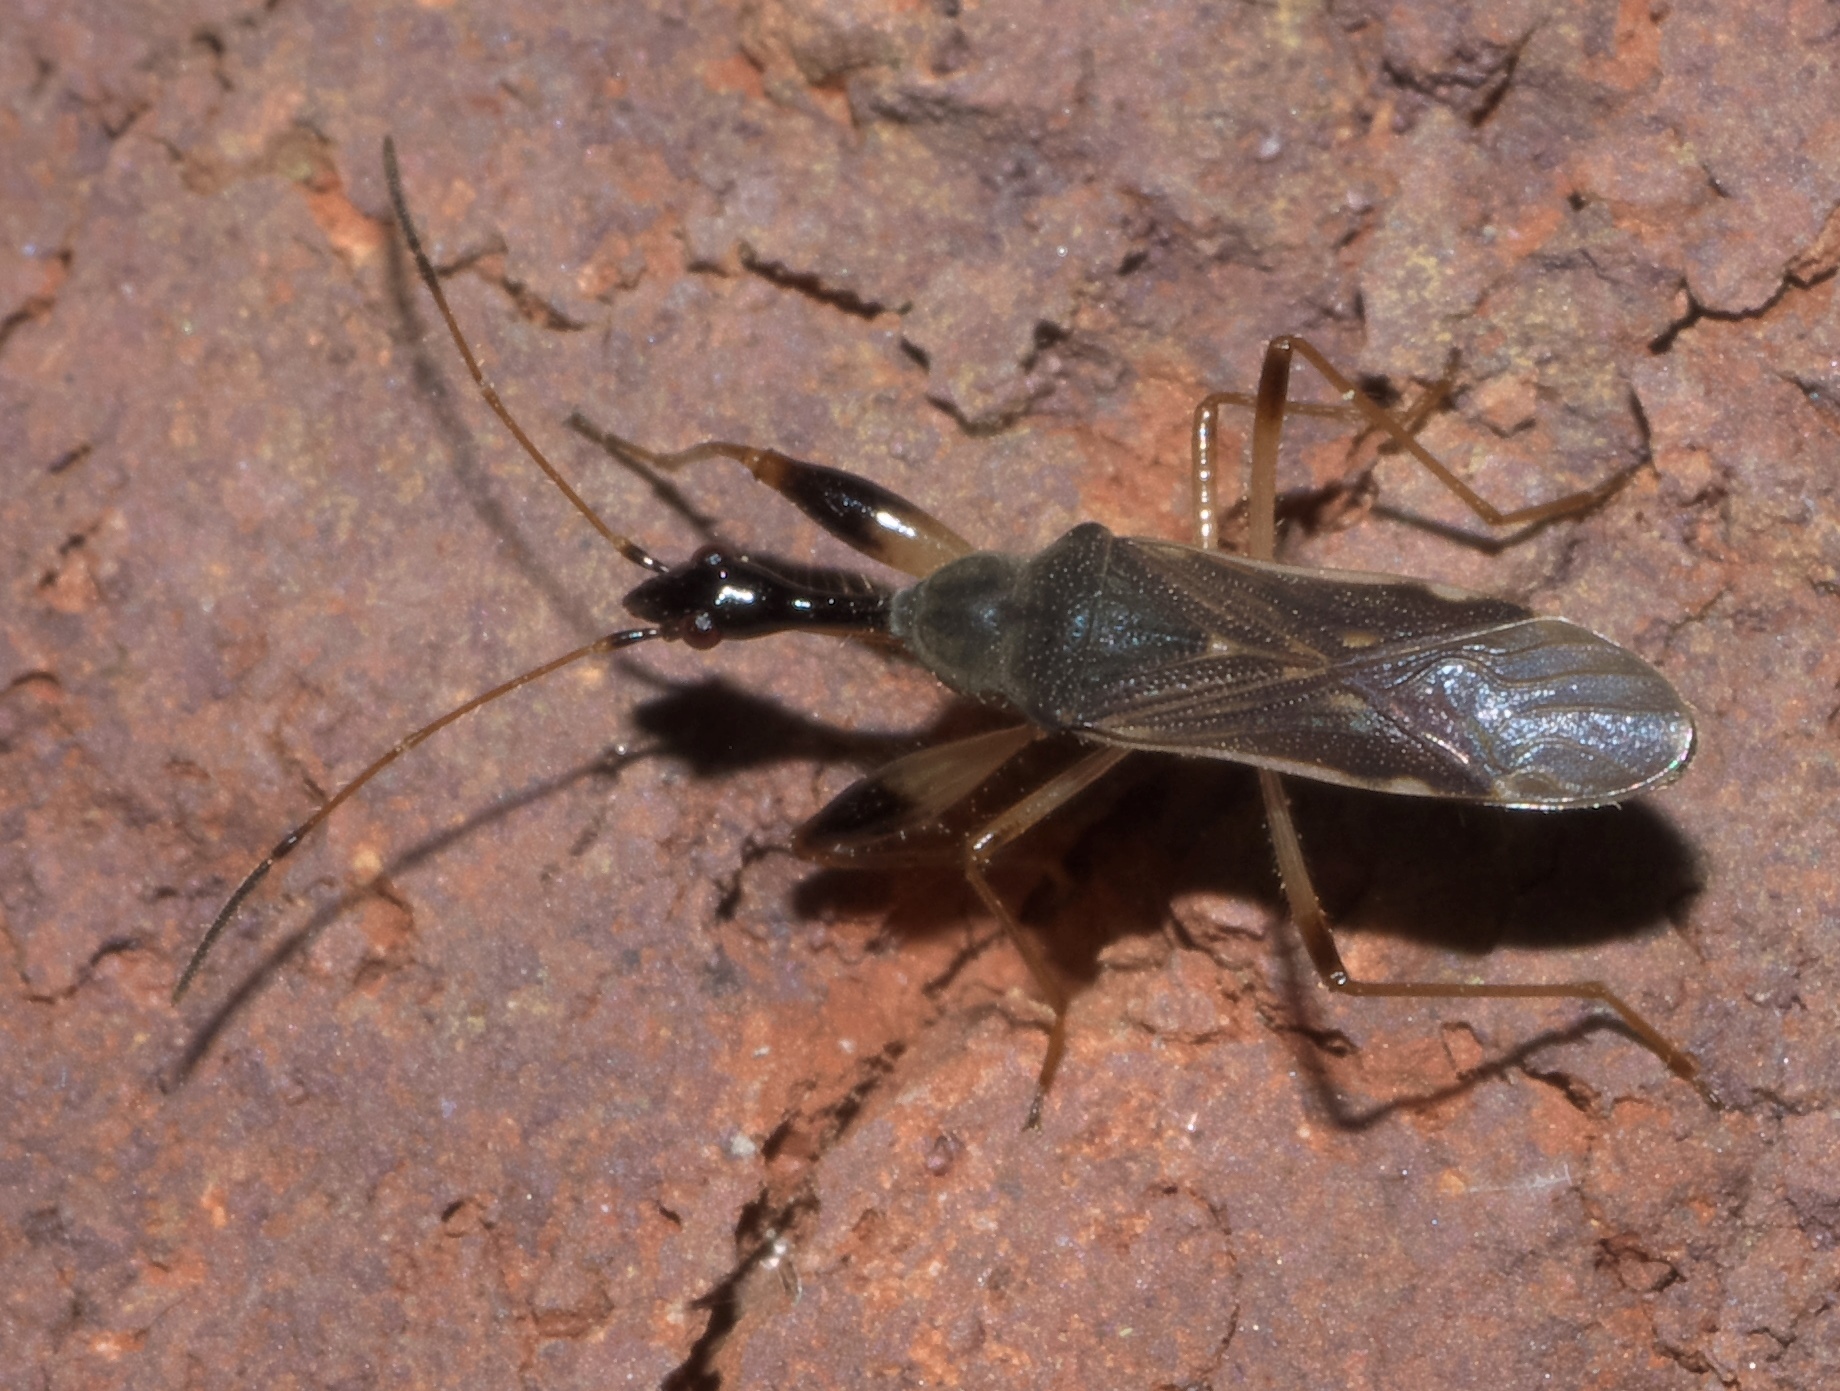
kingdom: Animalia
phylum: Arthropoda
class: Insecta
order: Hemiptera
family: Rhyparochromidae
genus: Myodocha
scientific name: Myodocha serripes
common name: Long-necked seed bug
